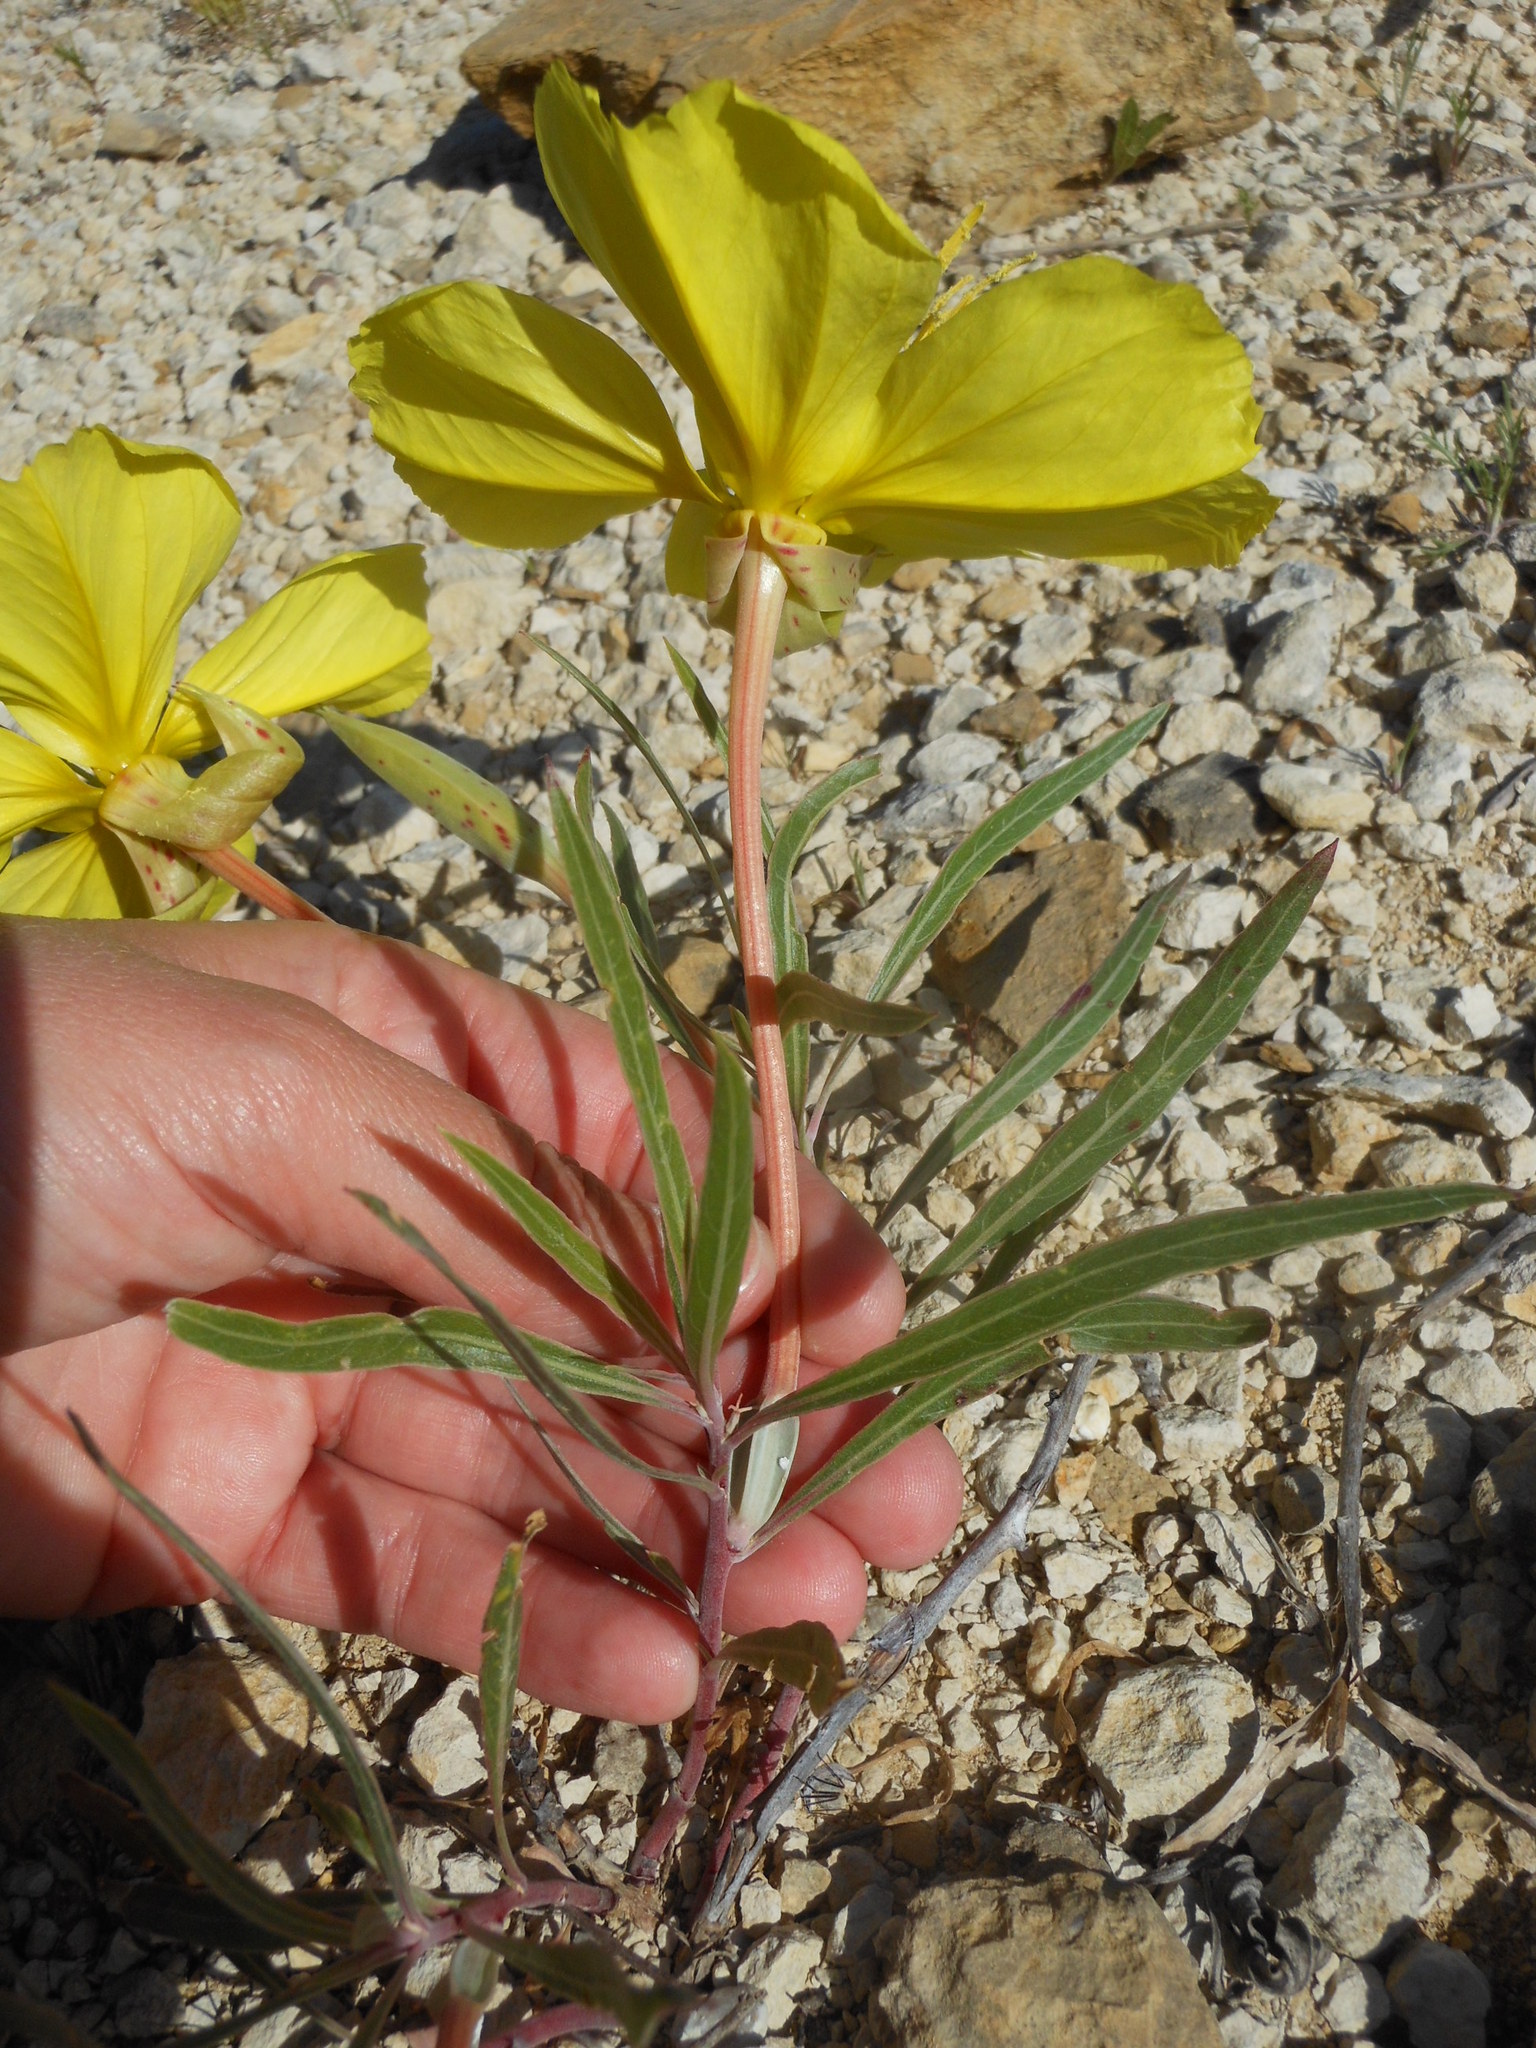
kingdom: Plantae
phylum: Tracheophyta
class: Magnoliopsida
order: Myrtales
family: Onagraceae
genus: Oenothera
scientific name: Oenothera macrocarpa
